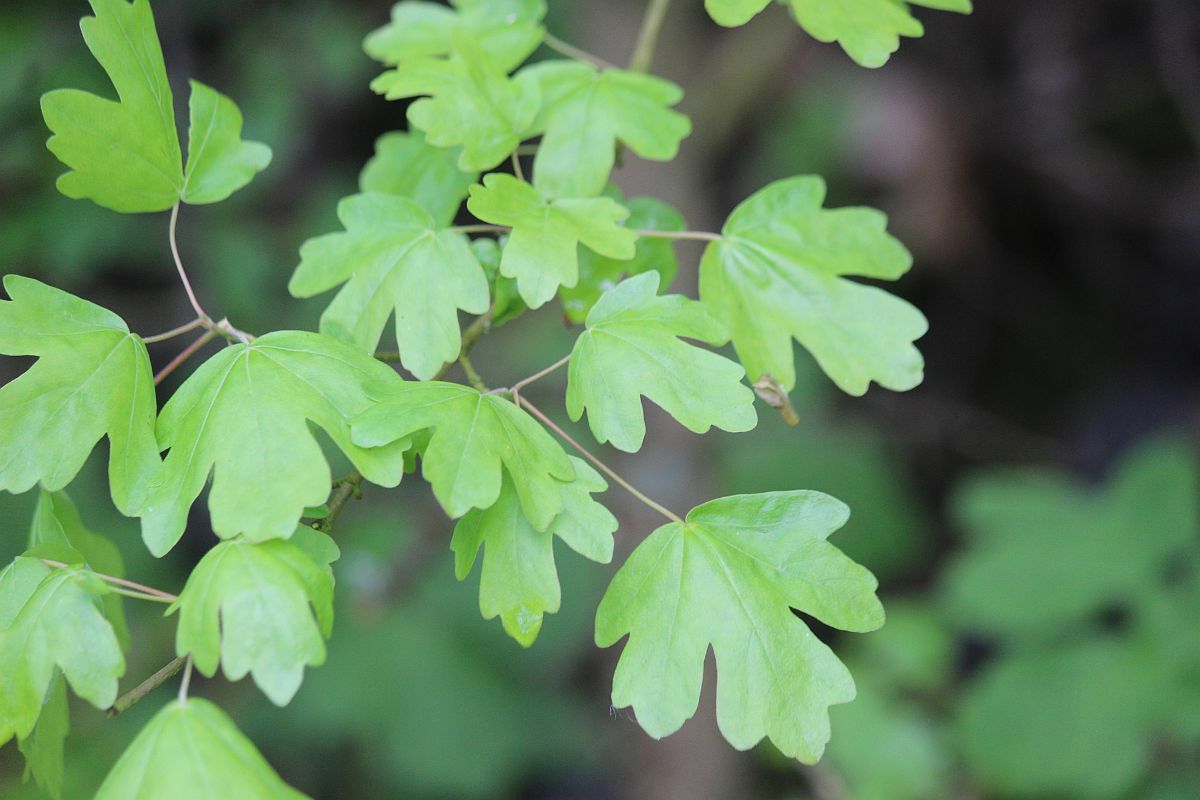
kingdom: Plantae
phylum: Tracheophyta
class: Magnoliopsida
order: Sapindales
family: Sapindaceae
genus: Acer
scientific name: Acer campestre
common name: Field maple
